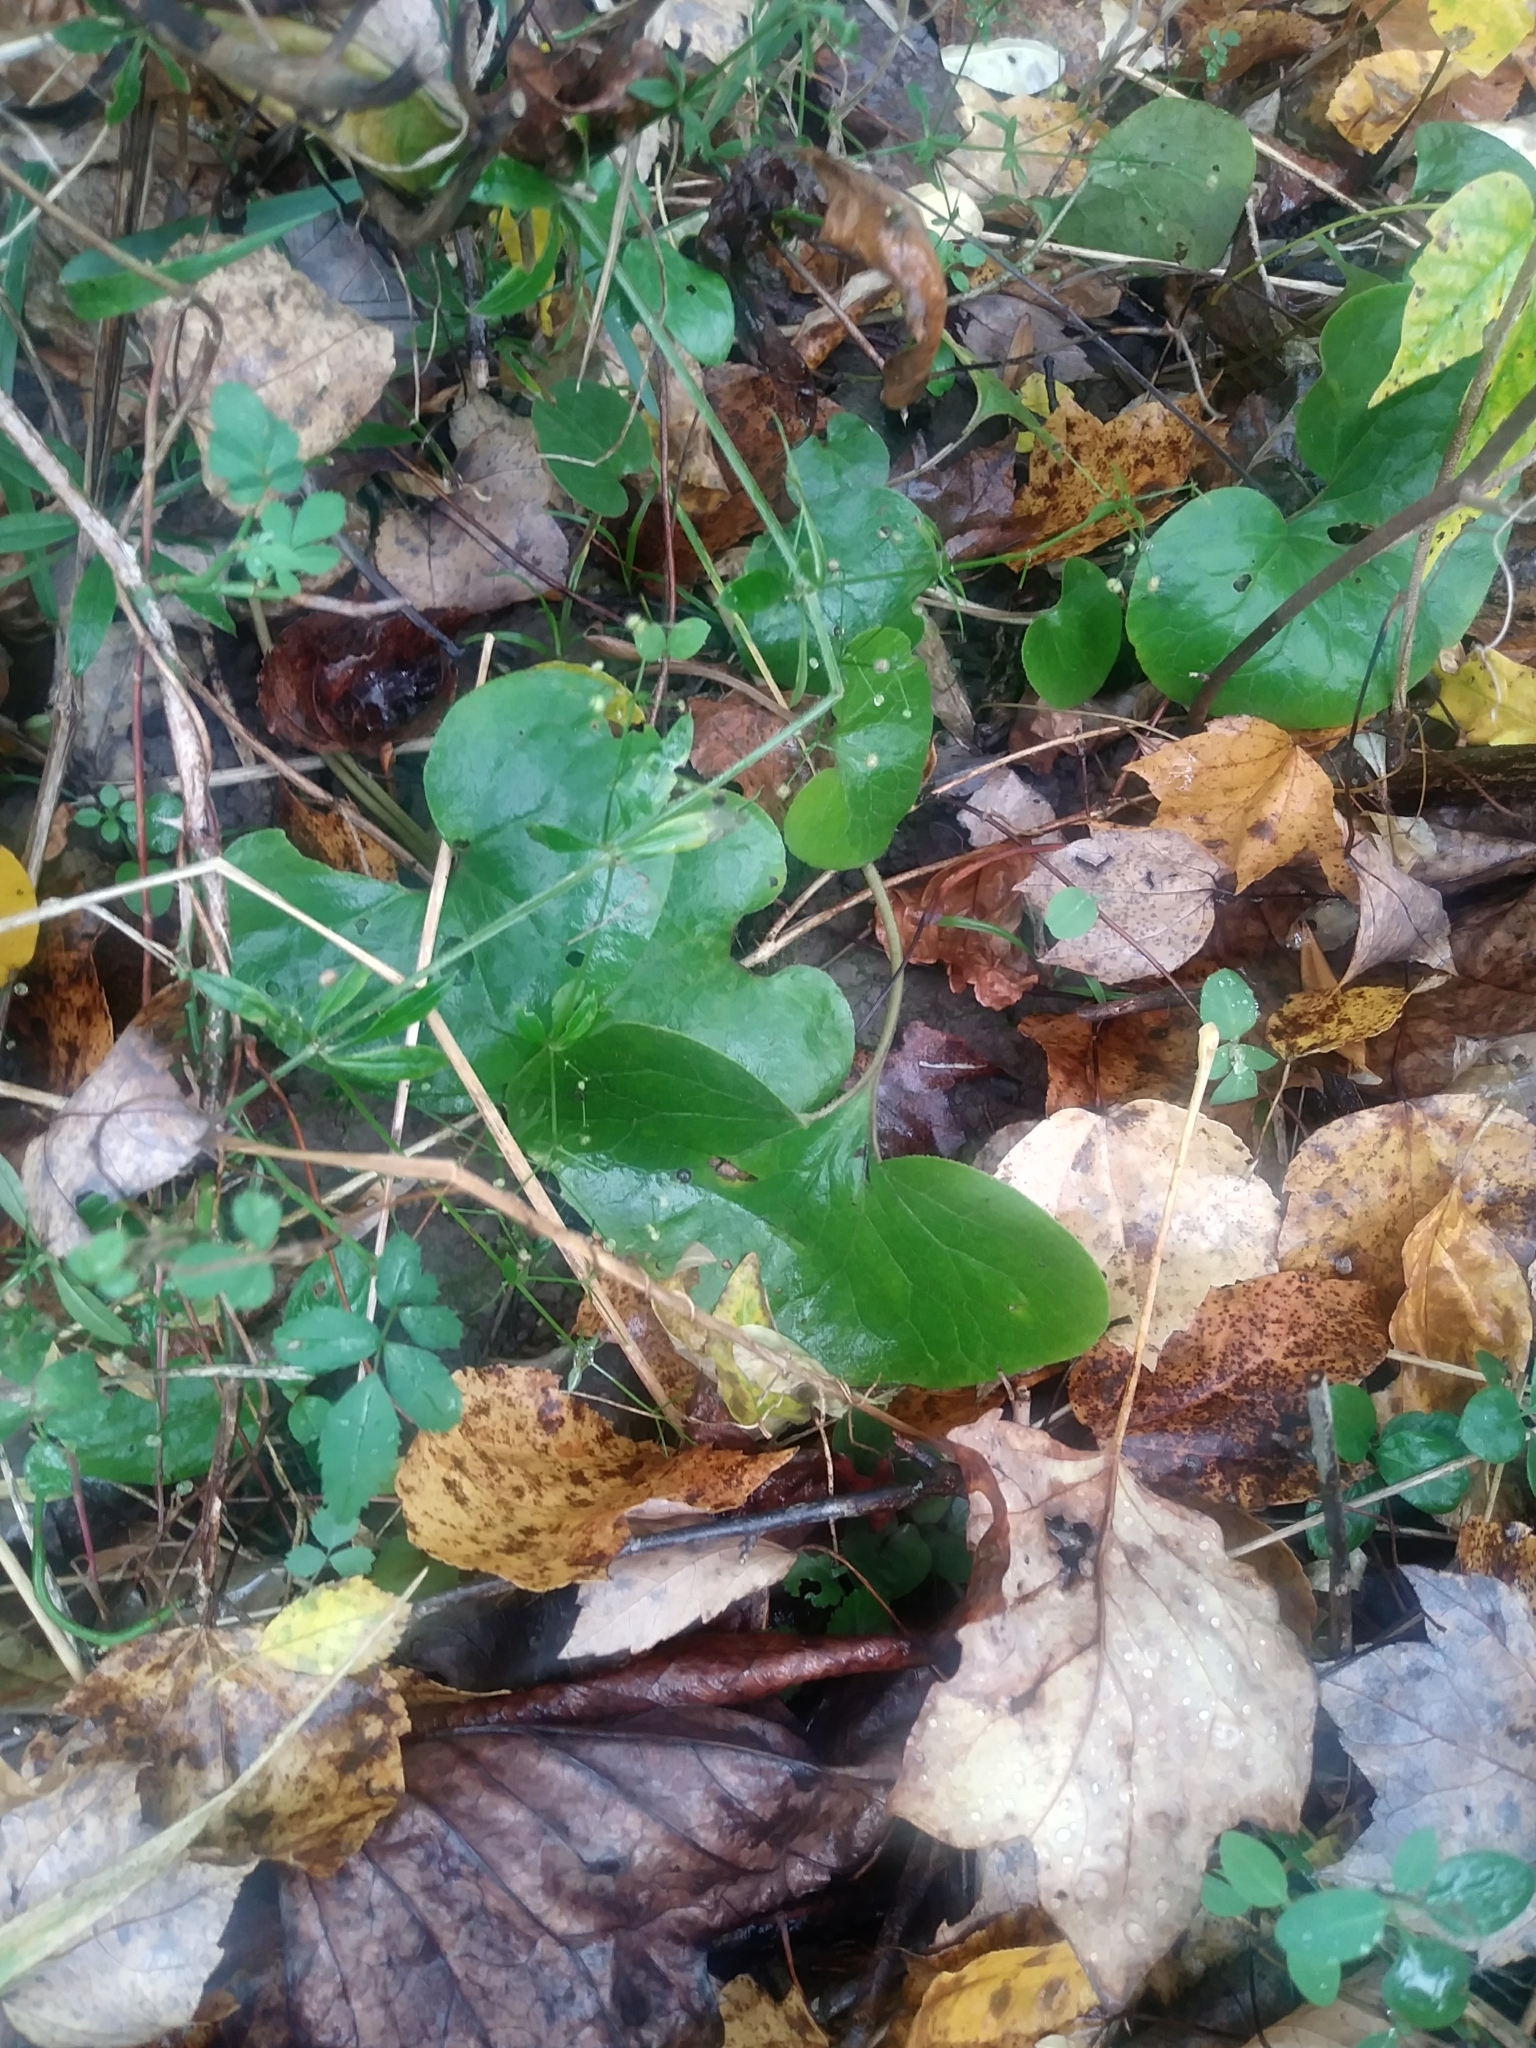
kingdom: Plantae
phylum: Tracheophyta
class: Magnoliopsida
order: Piperales
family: Aristolochiaceae
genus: Asarum
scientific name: Asarum canadense
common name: Wild ginger
